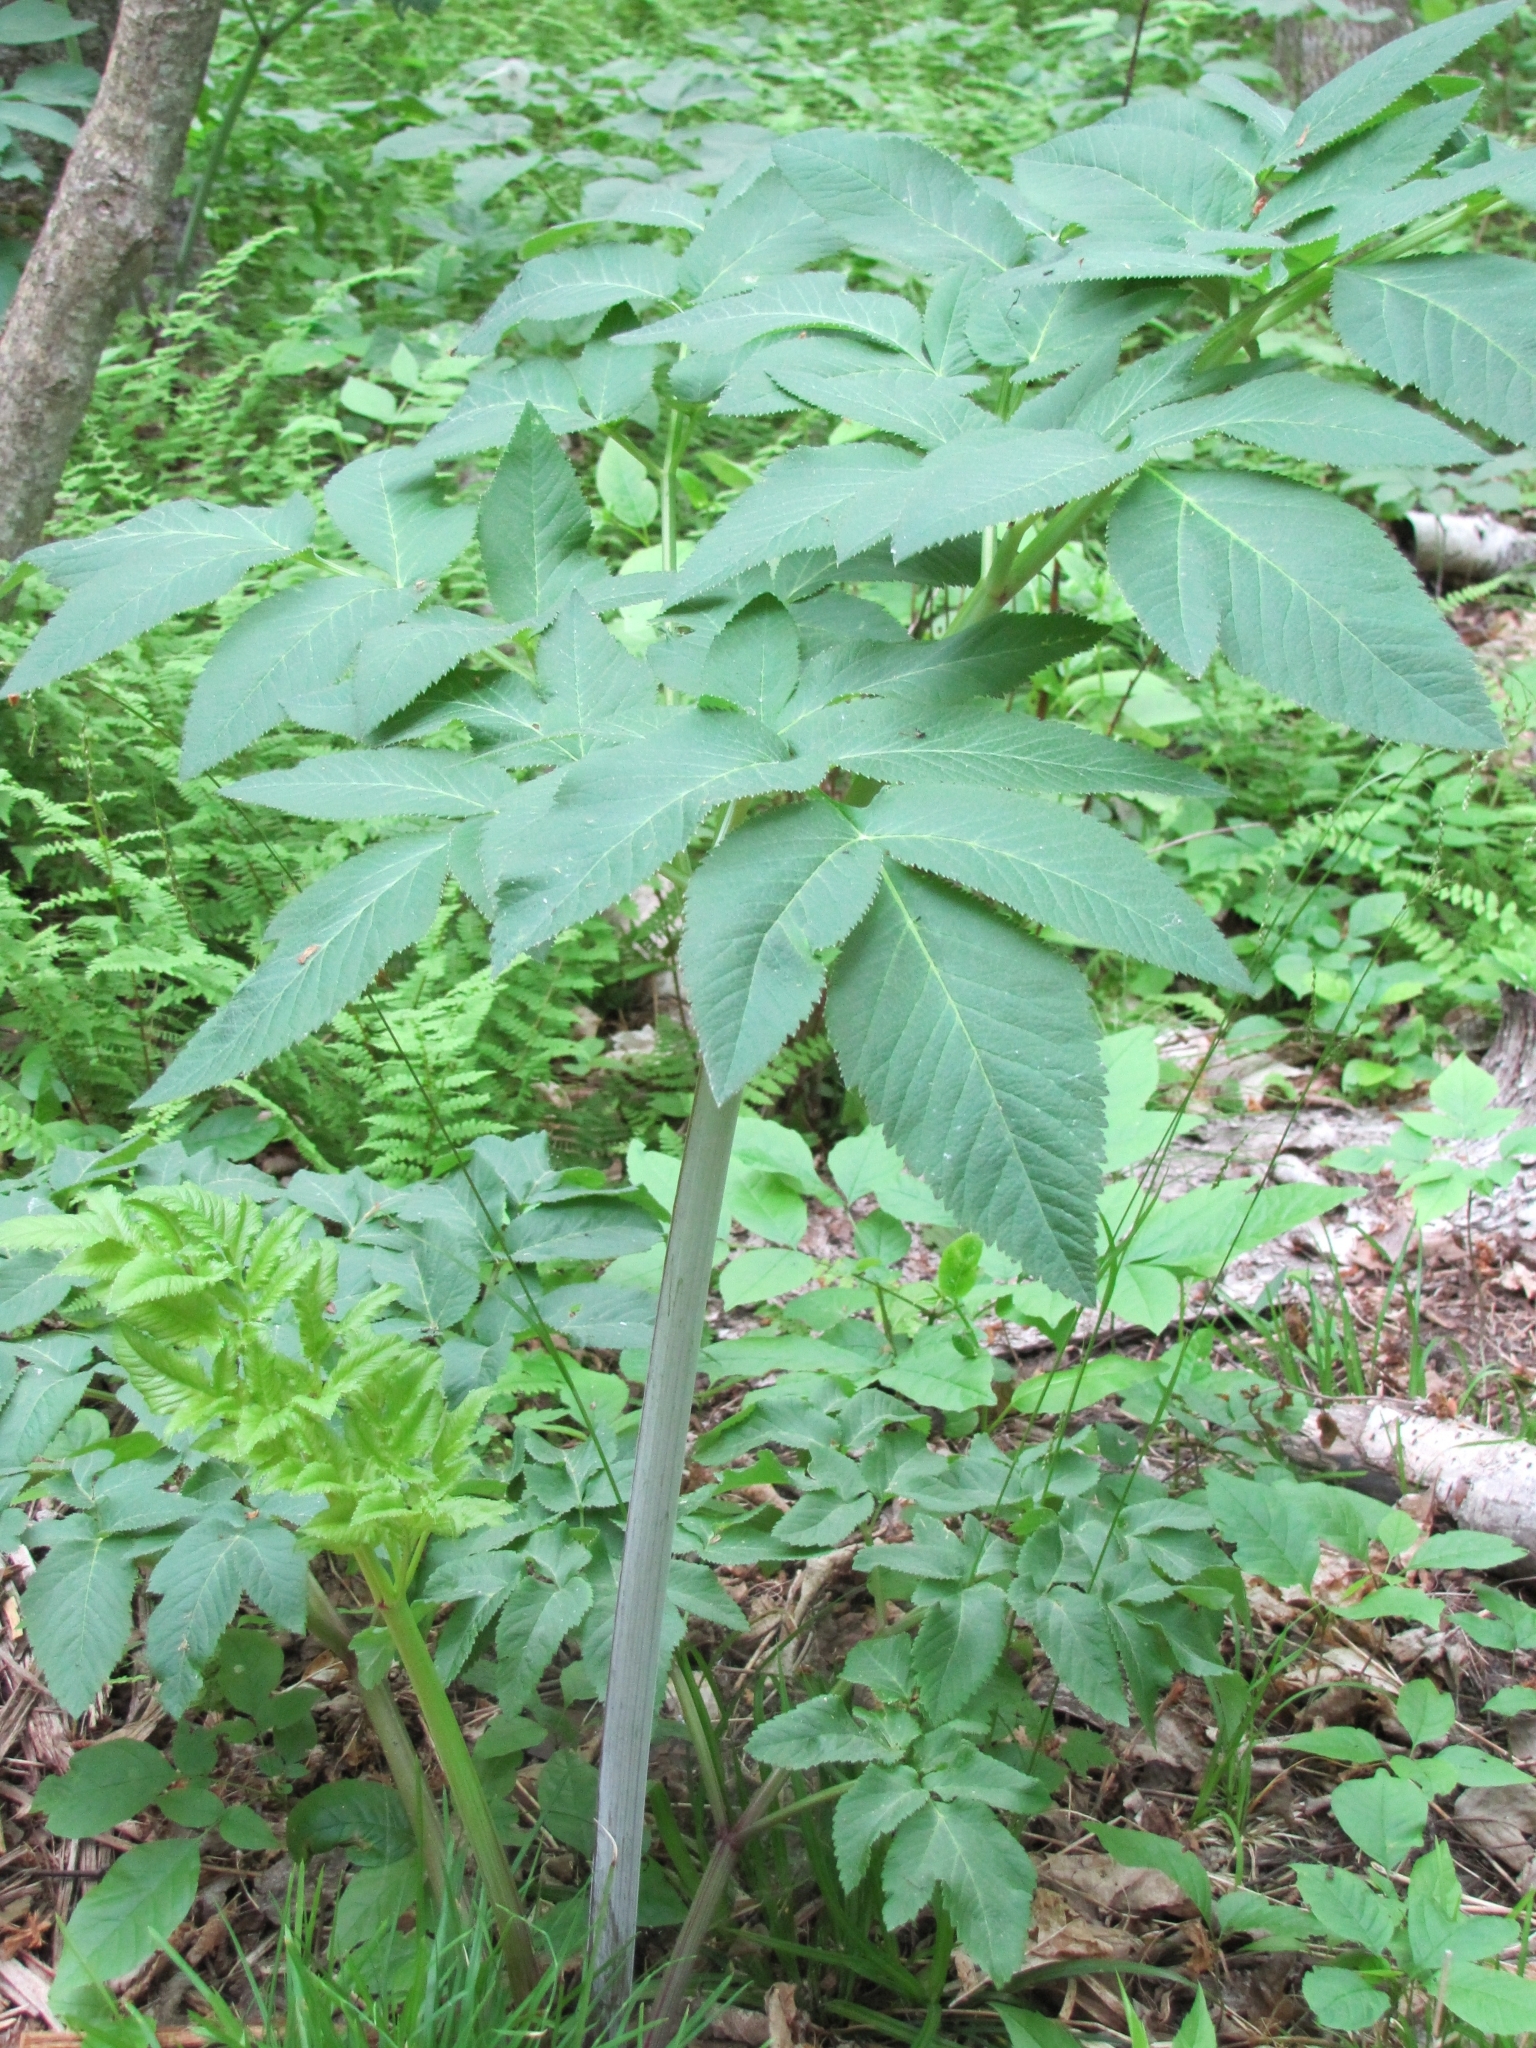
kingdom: Plantae
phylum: Tracheophyta
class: Magnoliopsida
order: Apiales
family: Apiaceae
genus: Angelica
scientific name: Angelica atropurpurea
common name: Great angelica
